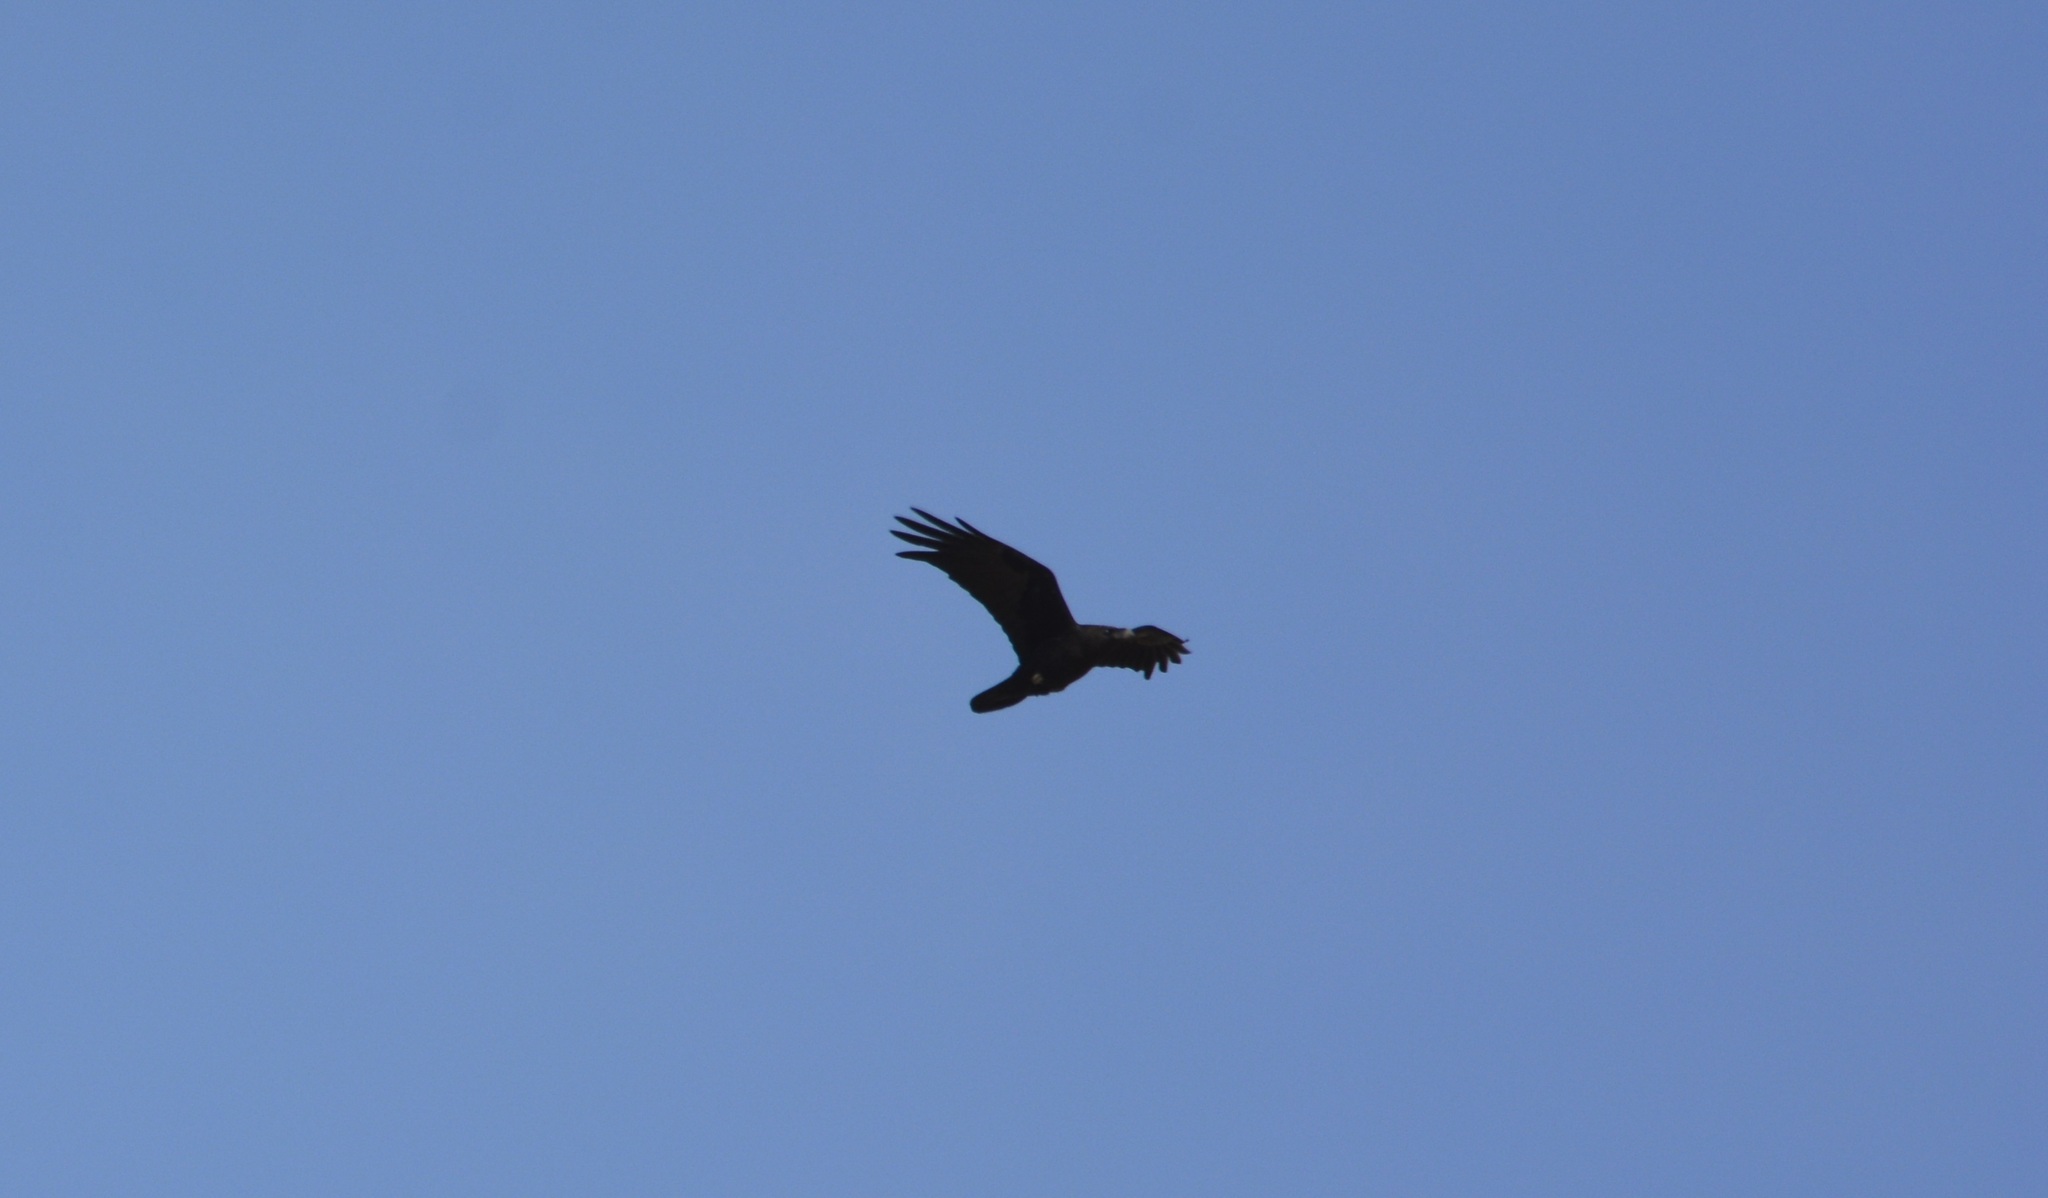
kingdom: Animalia
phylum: Chordata
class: Aves
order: Passeriformes
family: Corvidae
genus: Corvus
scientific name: Corvus ruficollis
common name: Brown-necked raven
